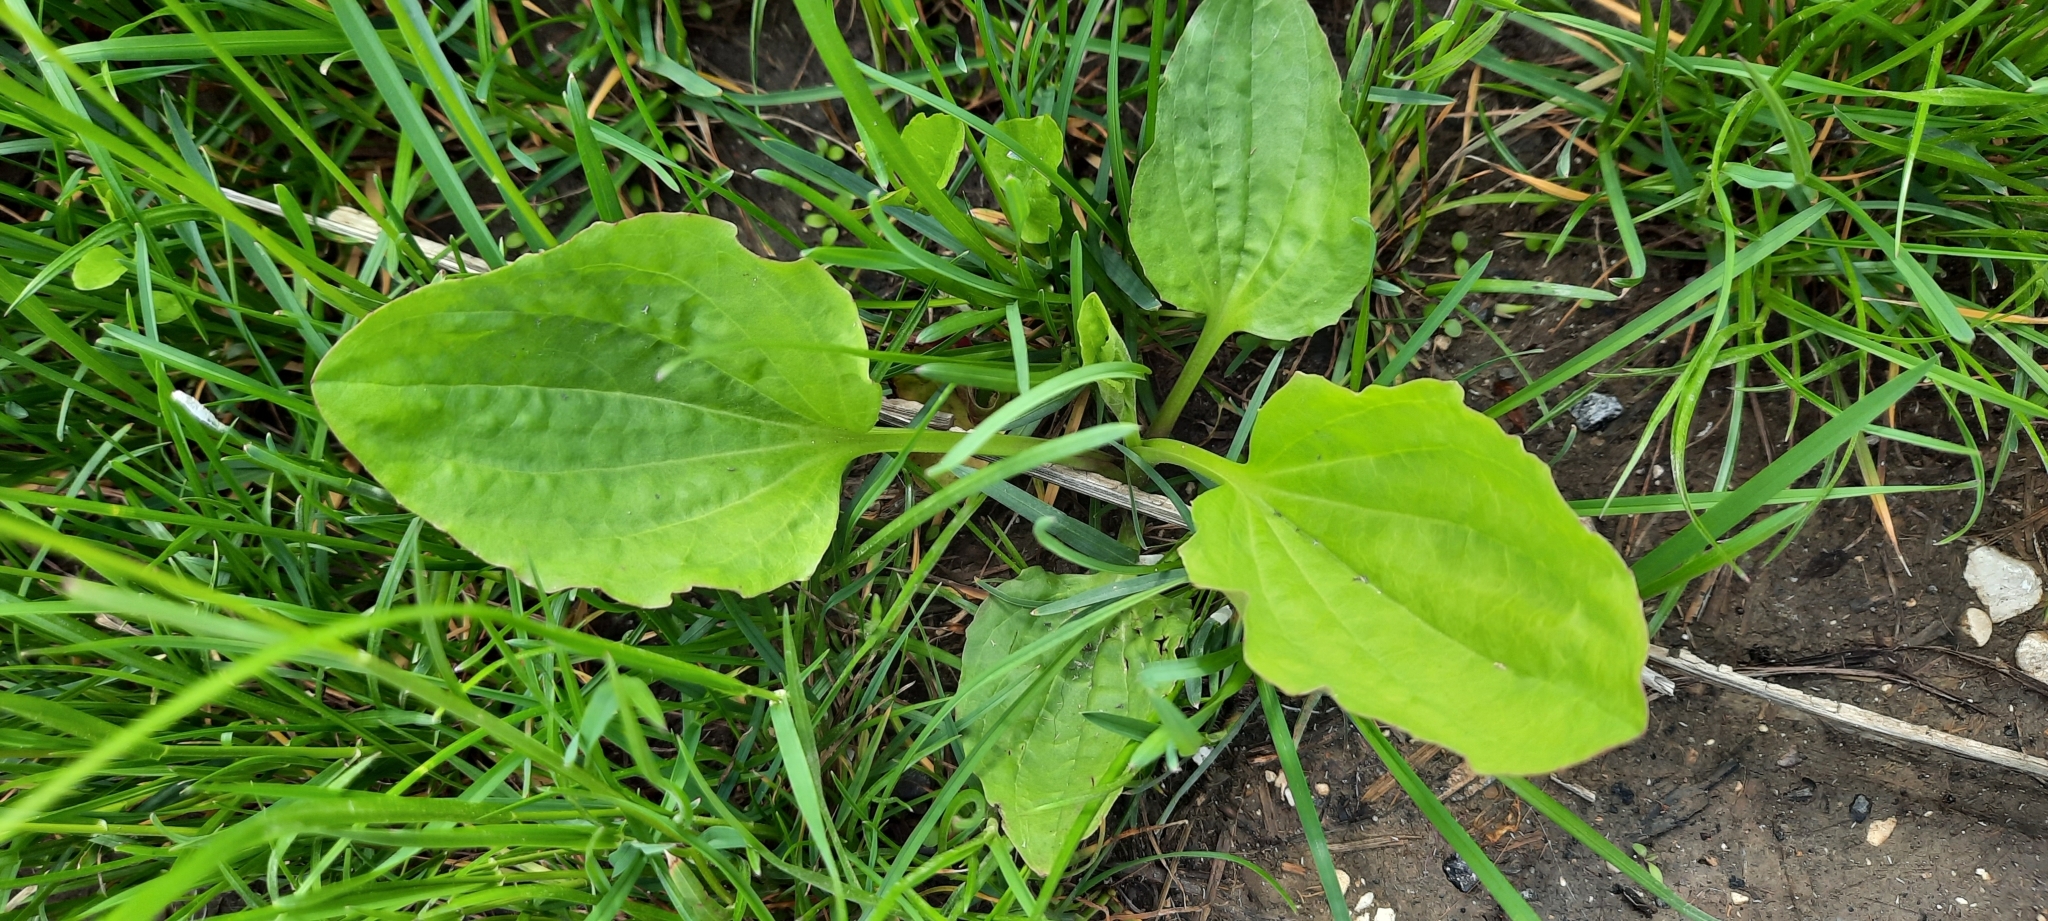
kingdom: Plantae
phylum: Tracheophyta
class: Magnoliopsida
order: Lamiales
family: Plantaginaceae
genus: Plantago
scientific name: Plantago major
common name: Common plantain
